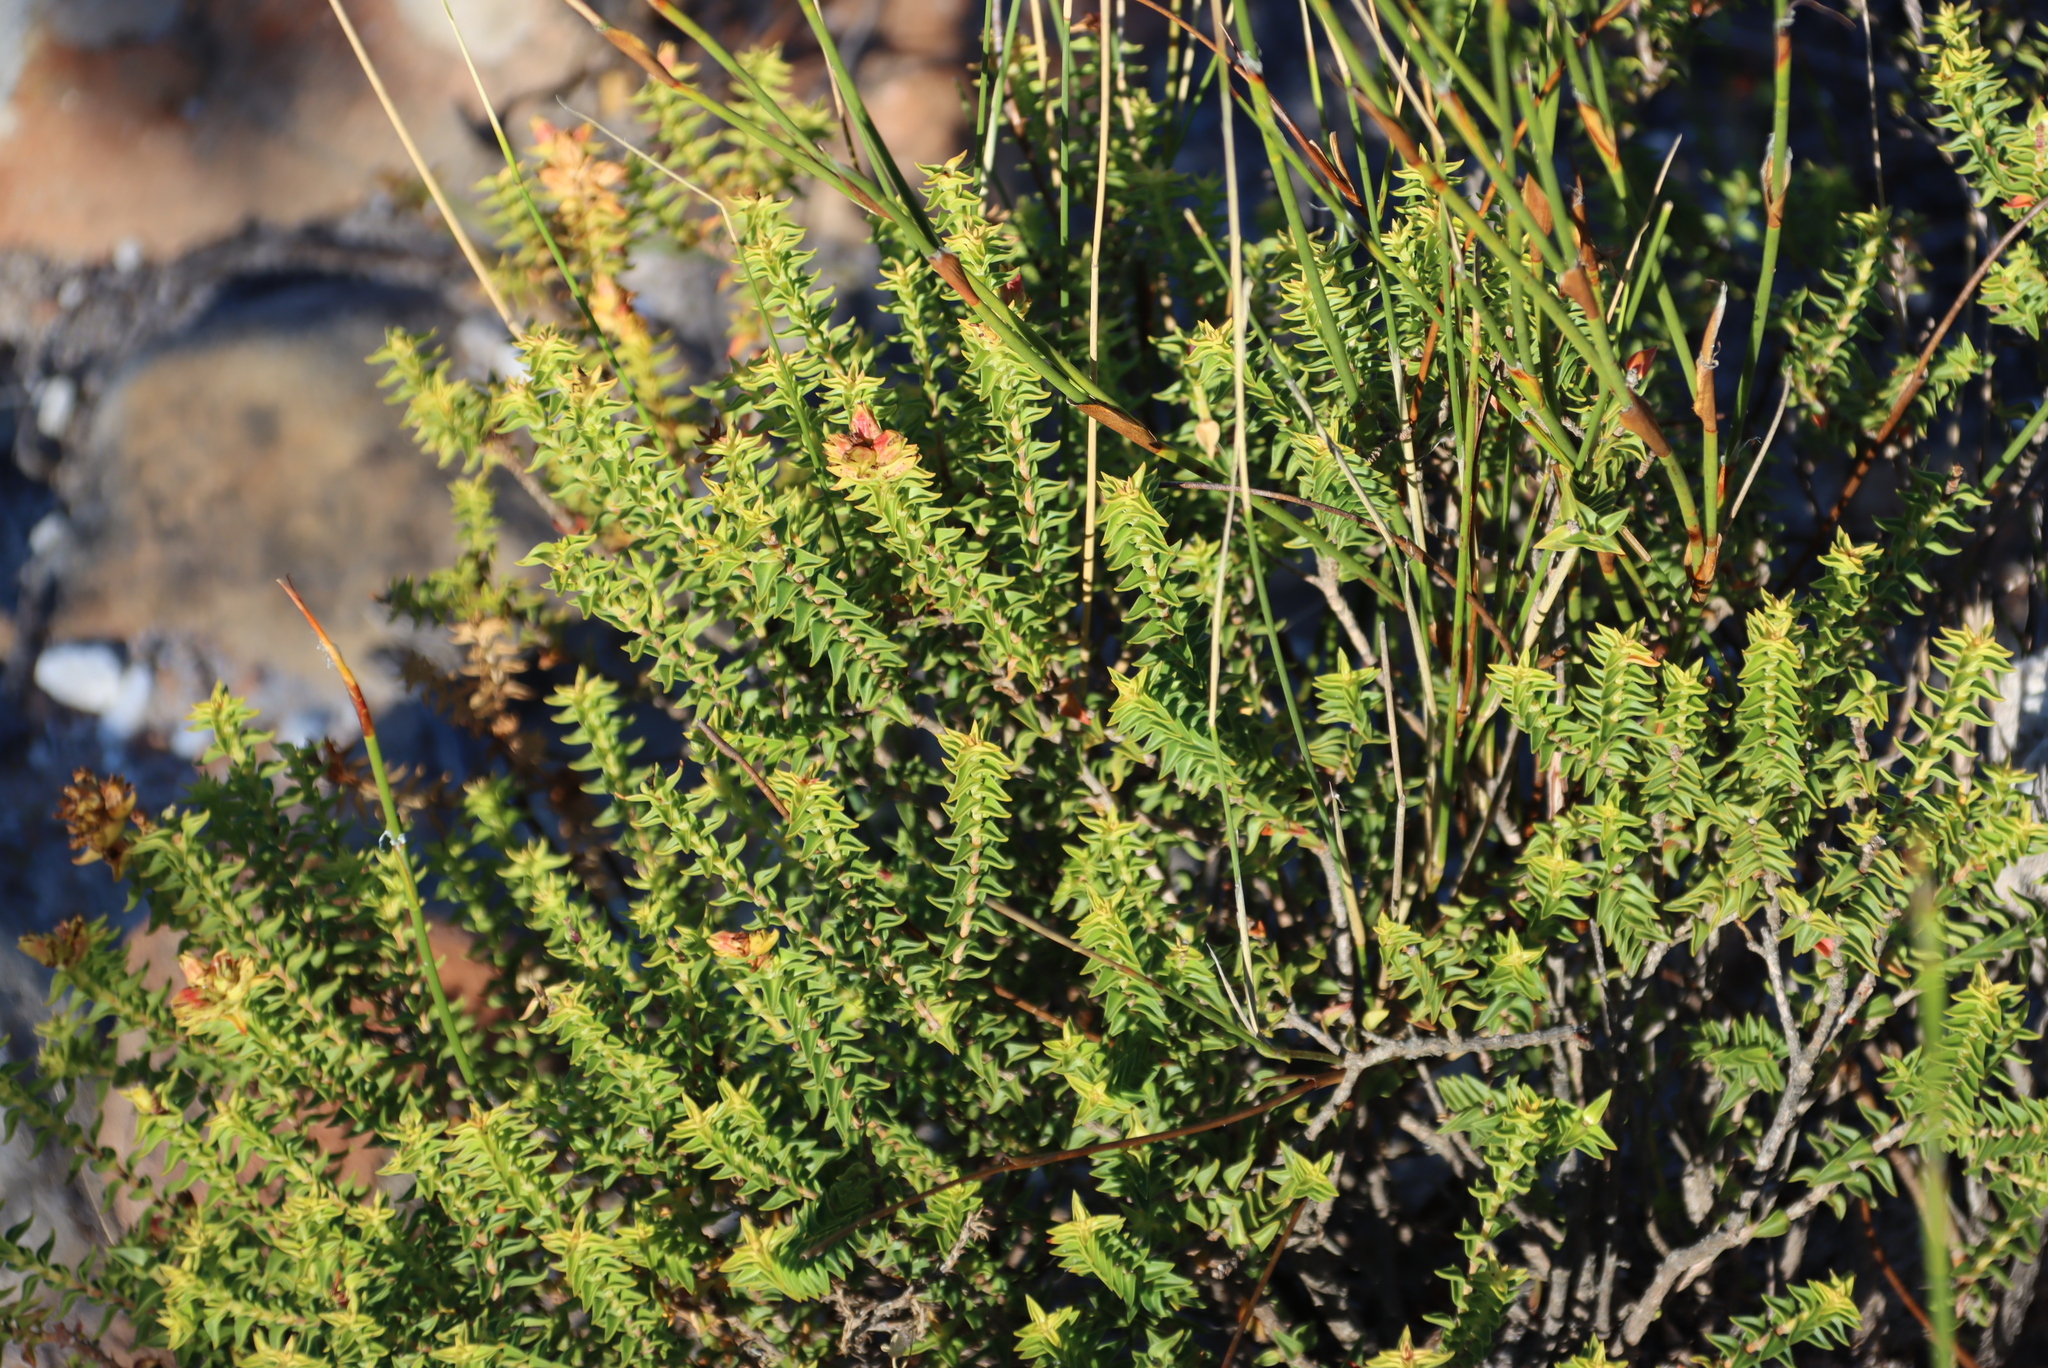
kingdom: Plantae
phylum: Tracheophyta
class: Magnoliopsida
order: Myrtales
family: Penaeaceae
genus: Penaea
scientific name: Penaea mucronata
